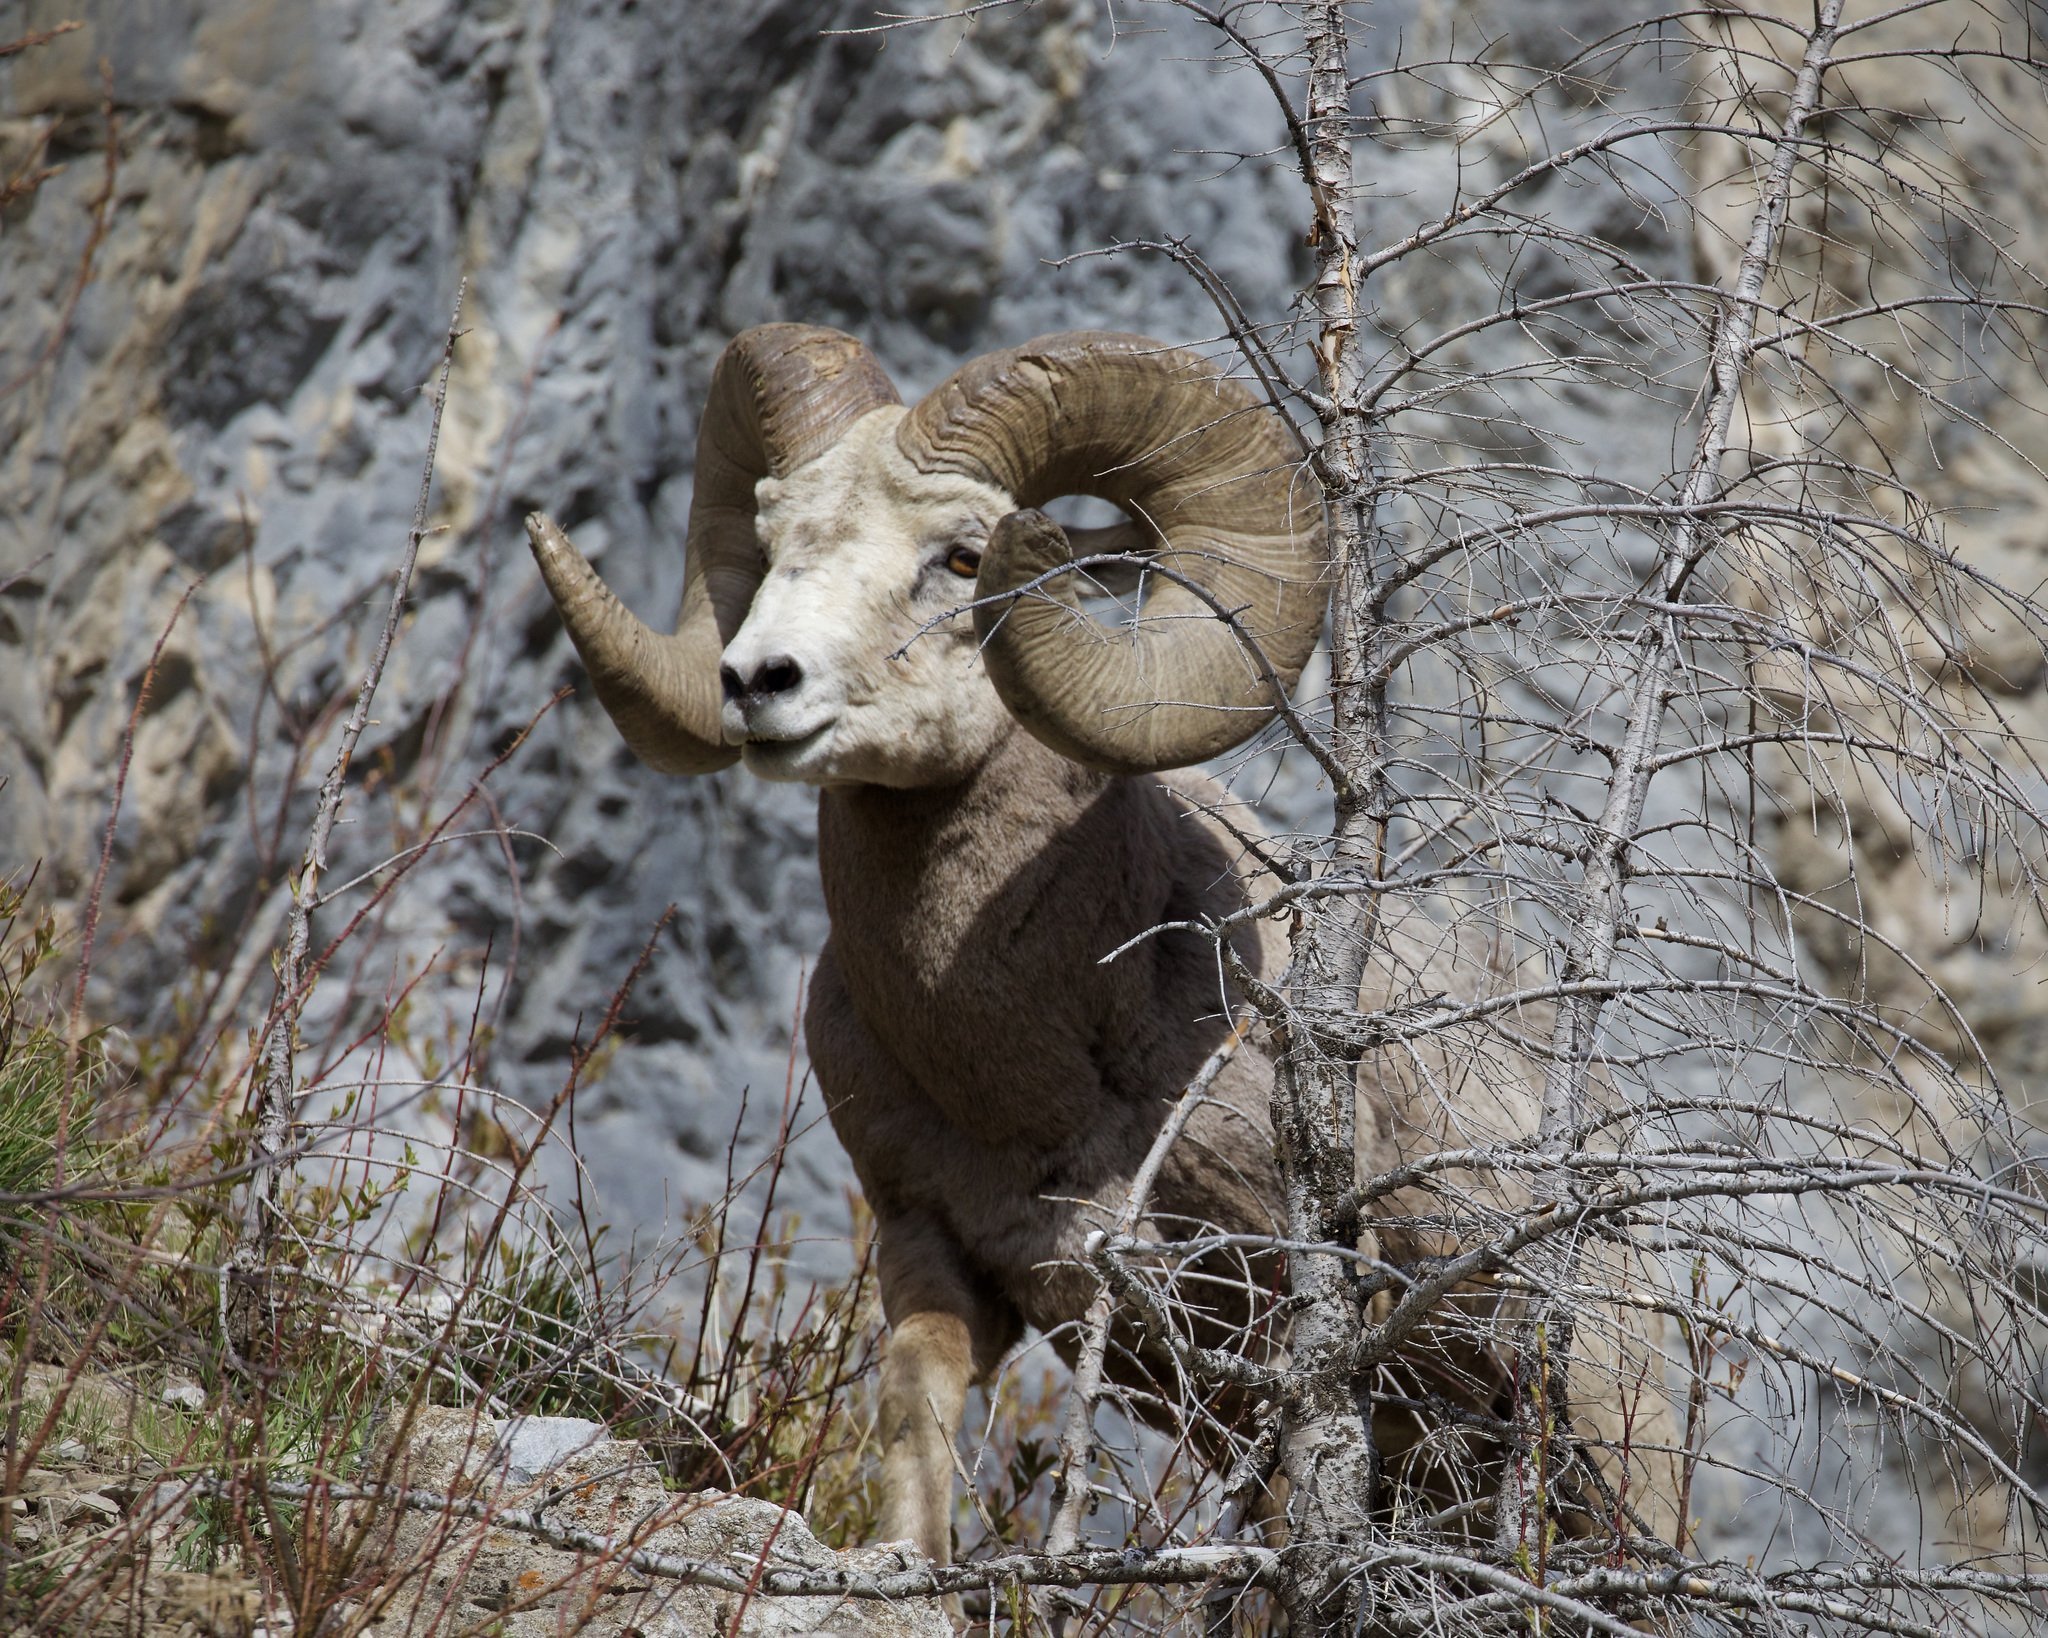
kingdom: Animalia
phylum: Chordata
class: Mammalia
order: Artiodactyla
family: Bovidae
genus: Ovis
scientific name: Ovis canadensis
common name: Bighorn sheep
